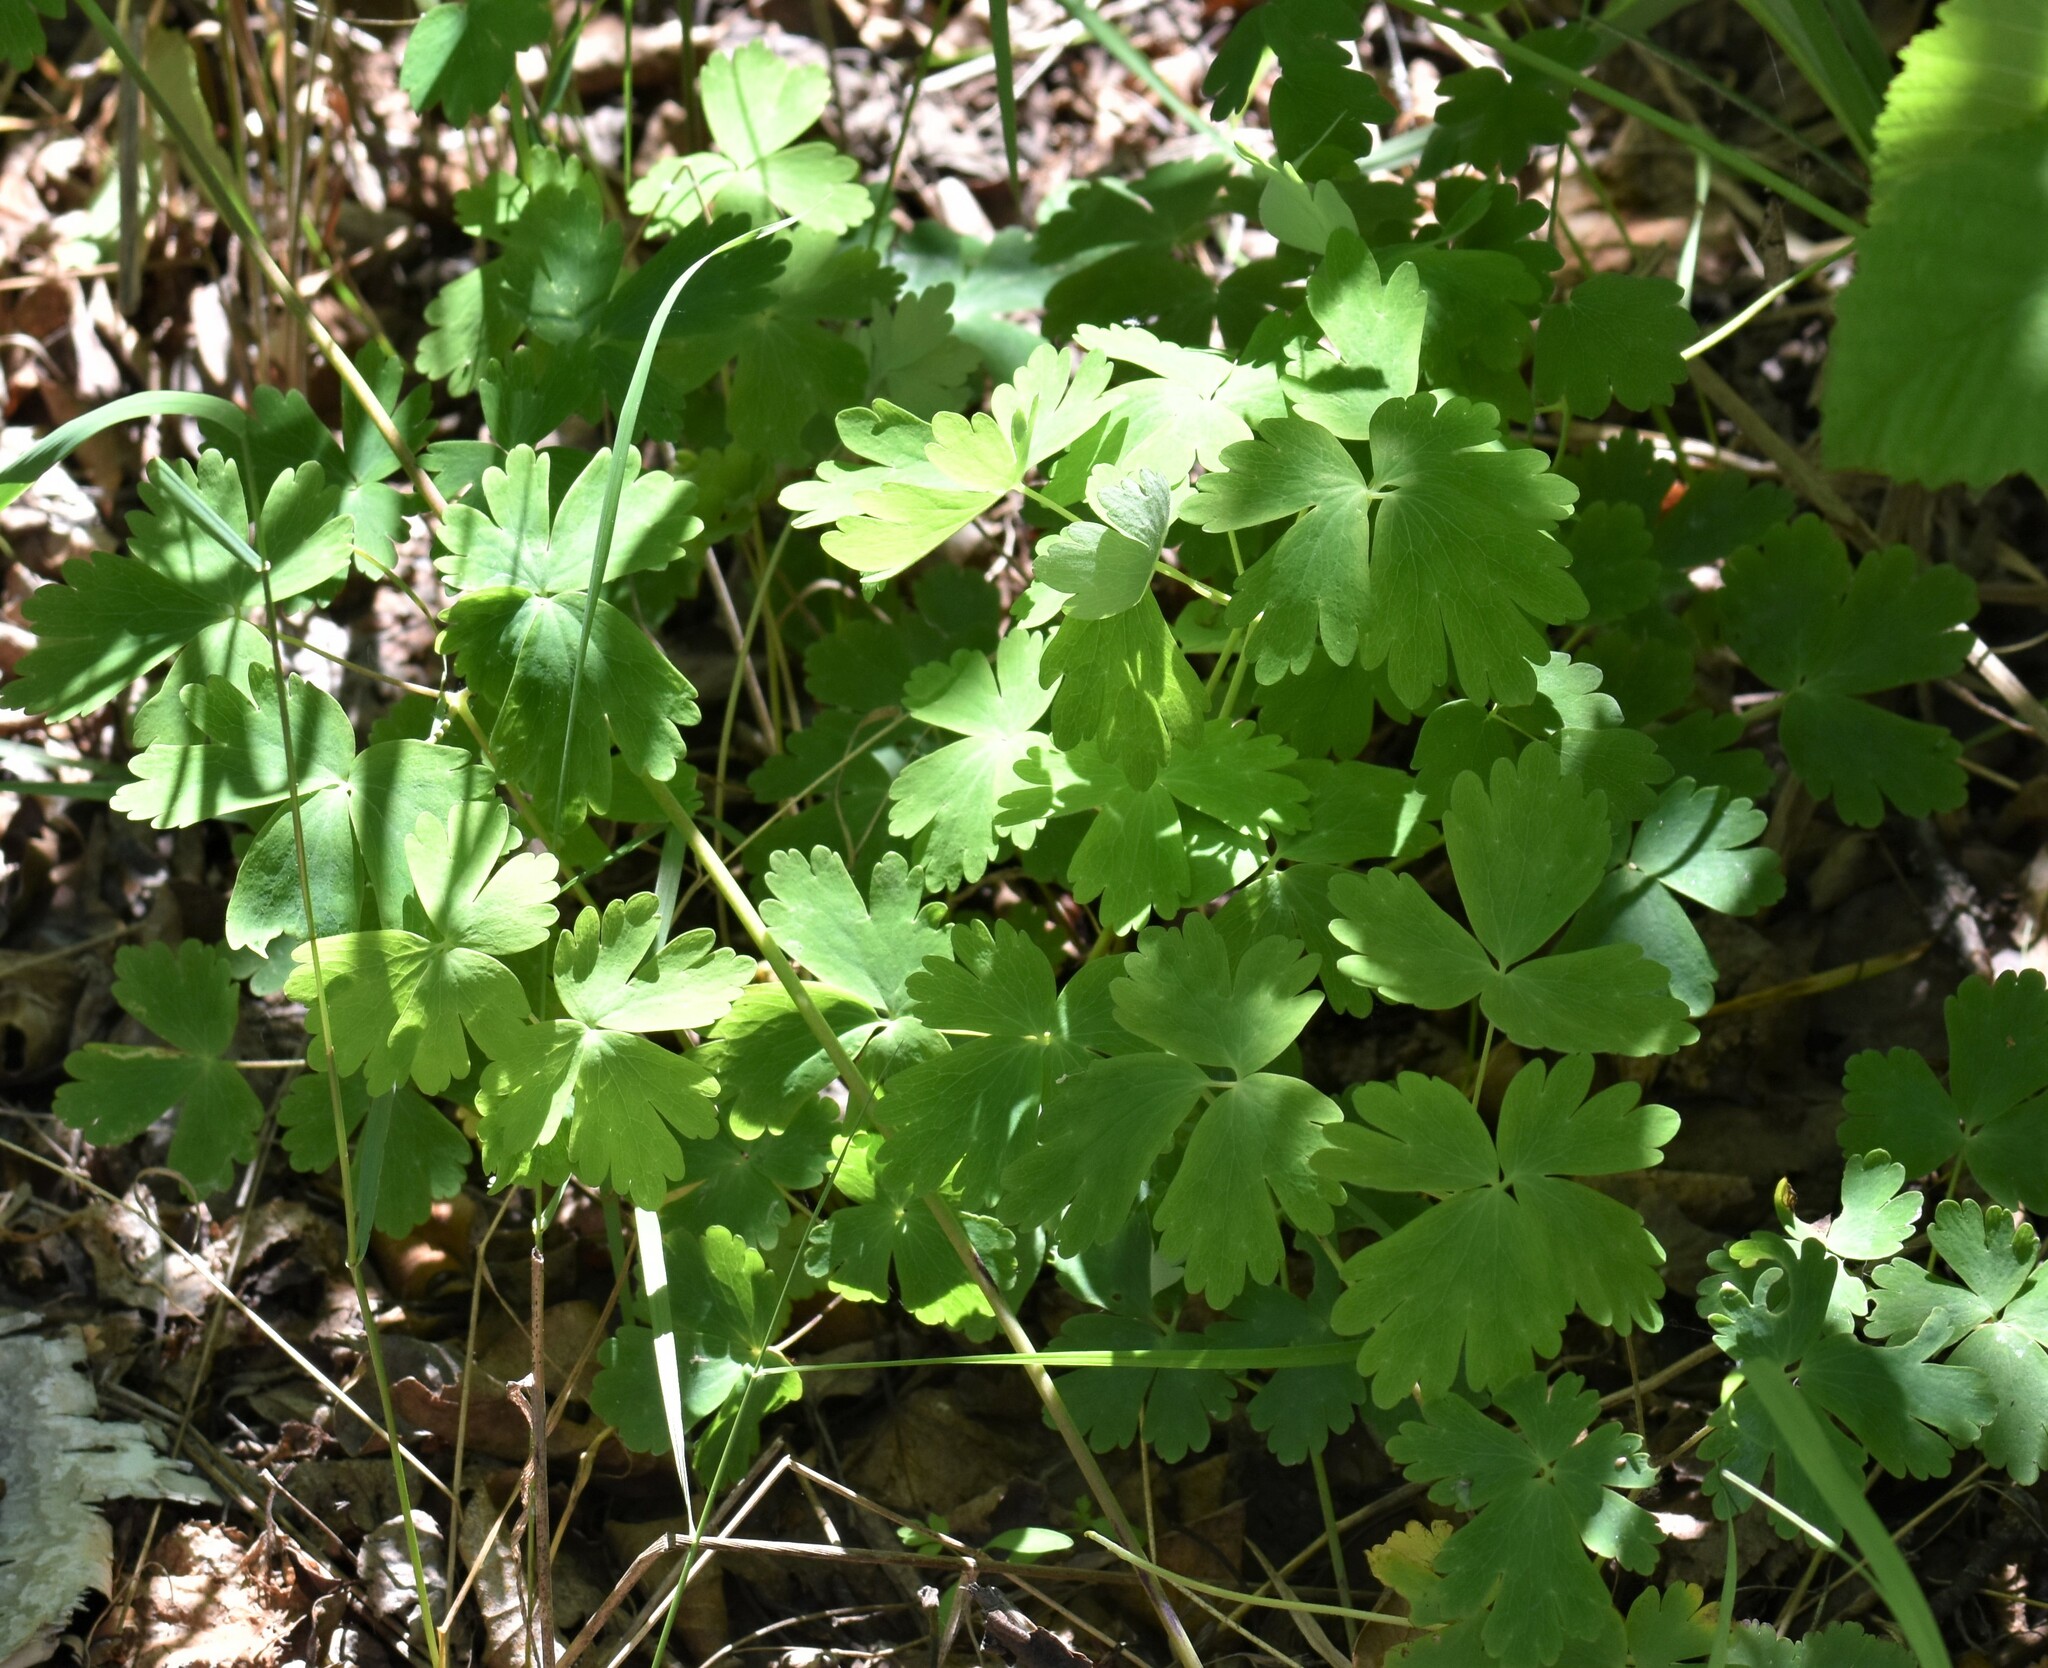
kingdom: Plantae
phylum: Tracheophyta
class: Magnoliopsida
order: Ranunculales
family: Ranunculaceae
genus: Aquilegia
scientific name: Aquilegia brevistyla
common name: Yukon columbine
